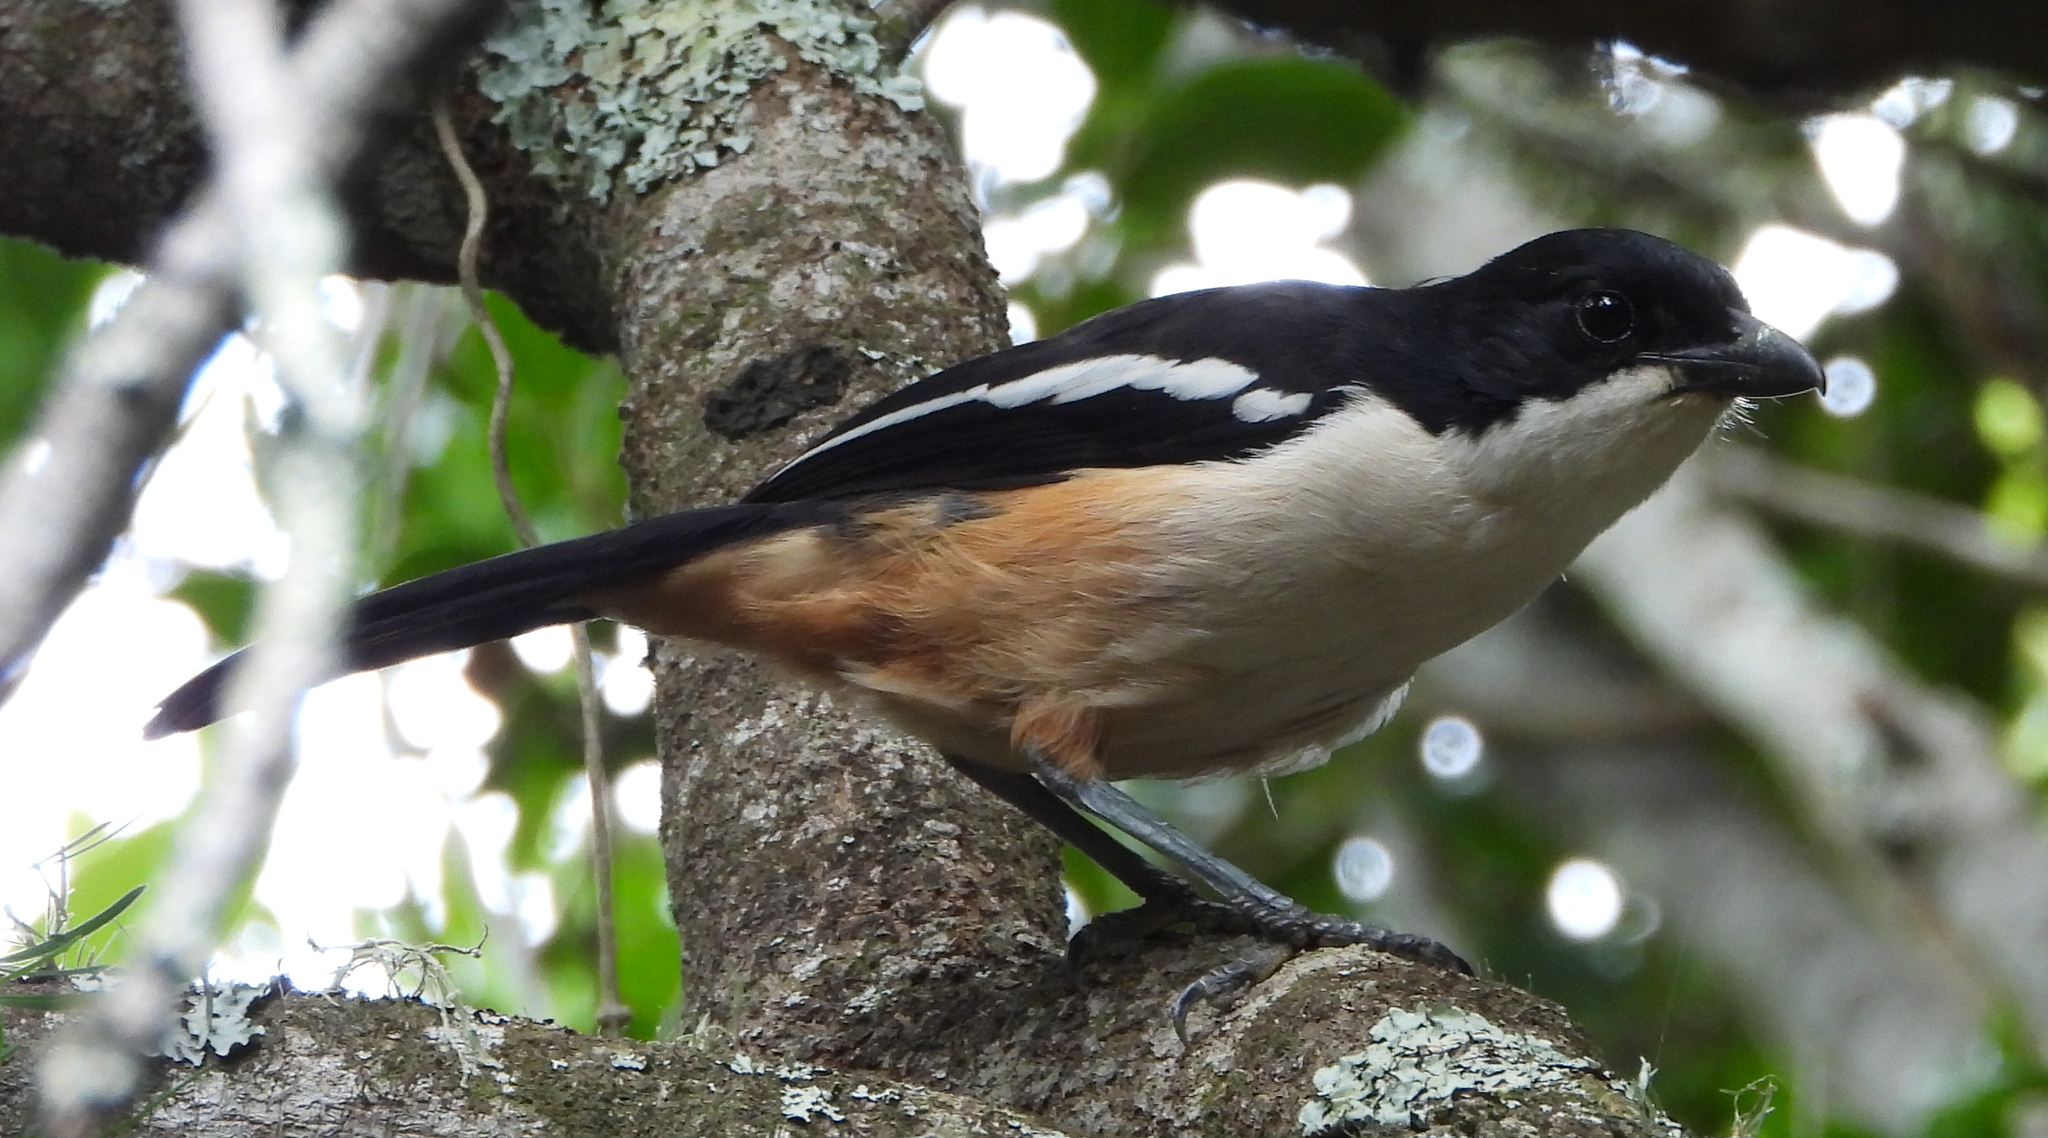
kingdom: Animalia
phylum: Chordata
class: Aves
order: Passeriformes
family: Malaconotidae
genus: Laniarius
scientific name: Laniarius ferrugineus
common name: Southern boubou
